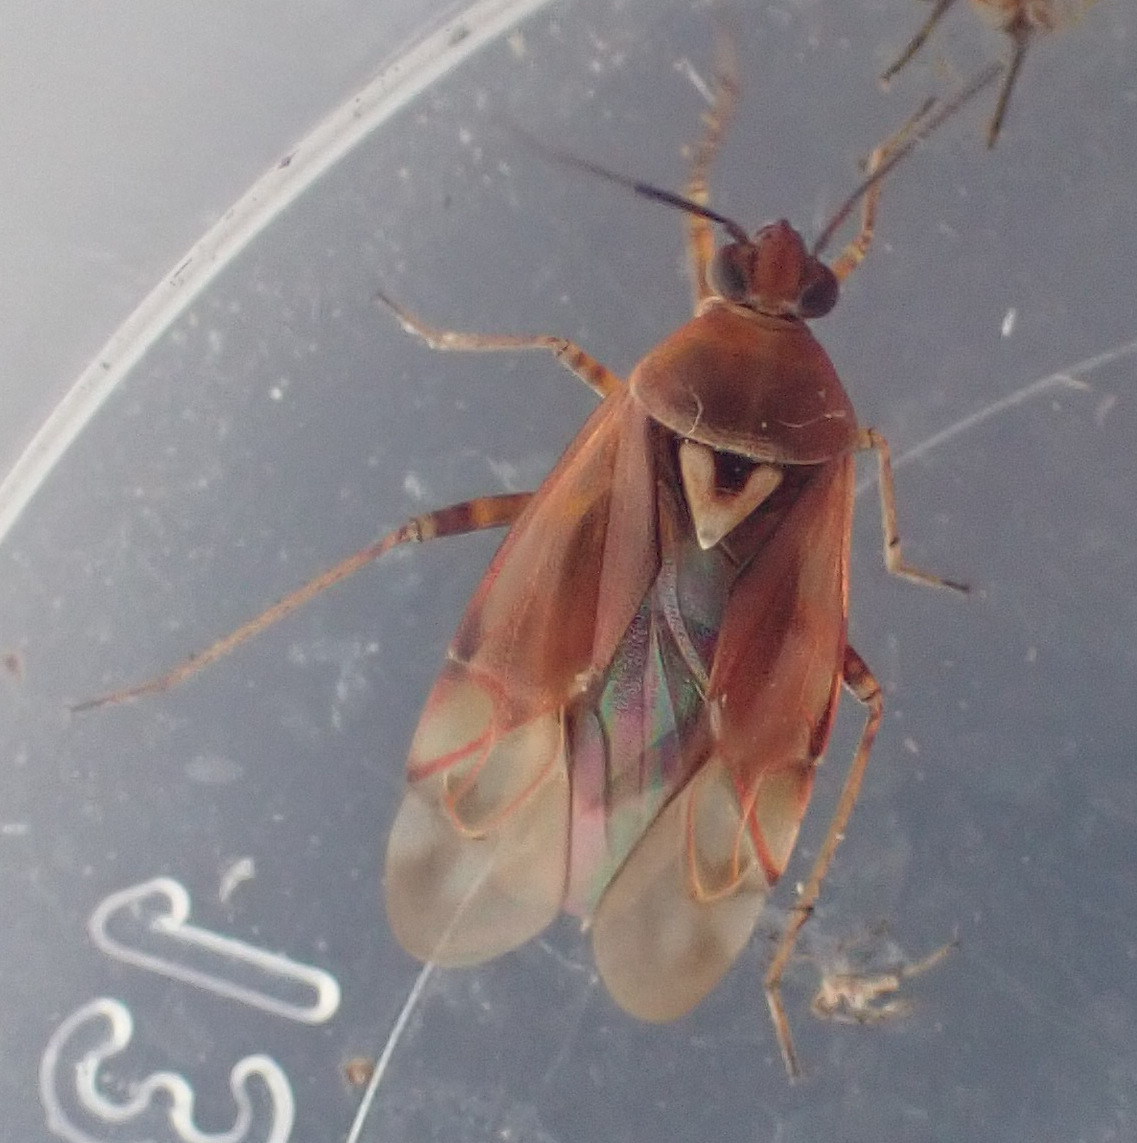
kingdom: Animalia
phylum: Arthropoda
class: Insecta
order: Hemiptera
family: Miridae
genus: Lygus
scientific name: Lygus pratensis
